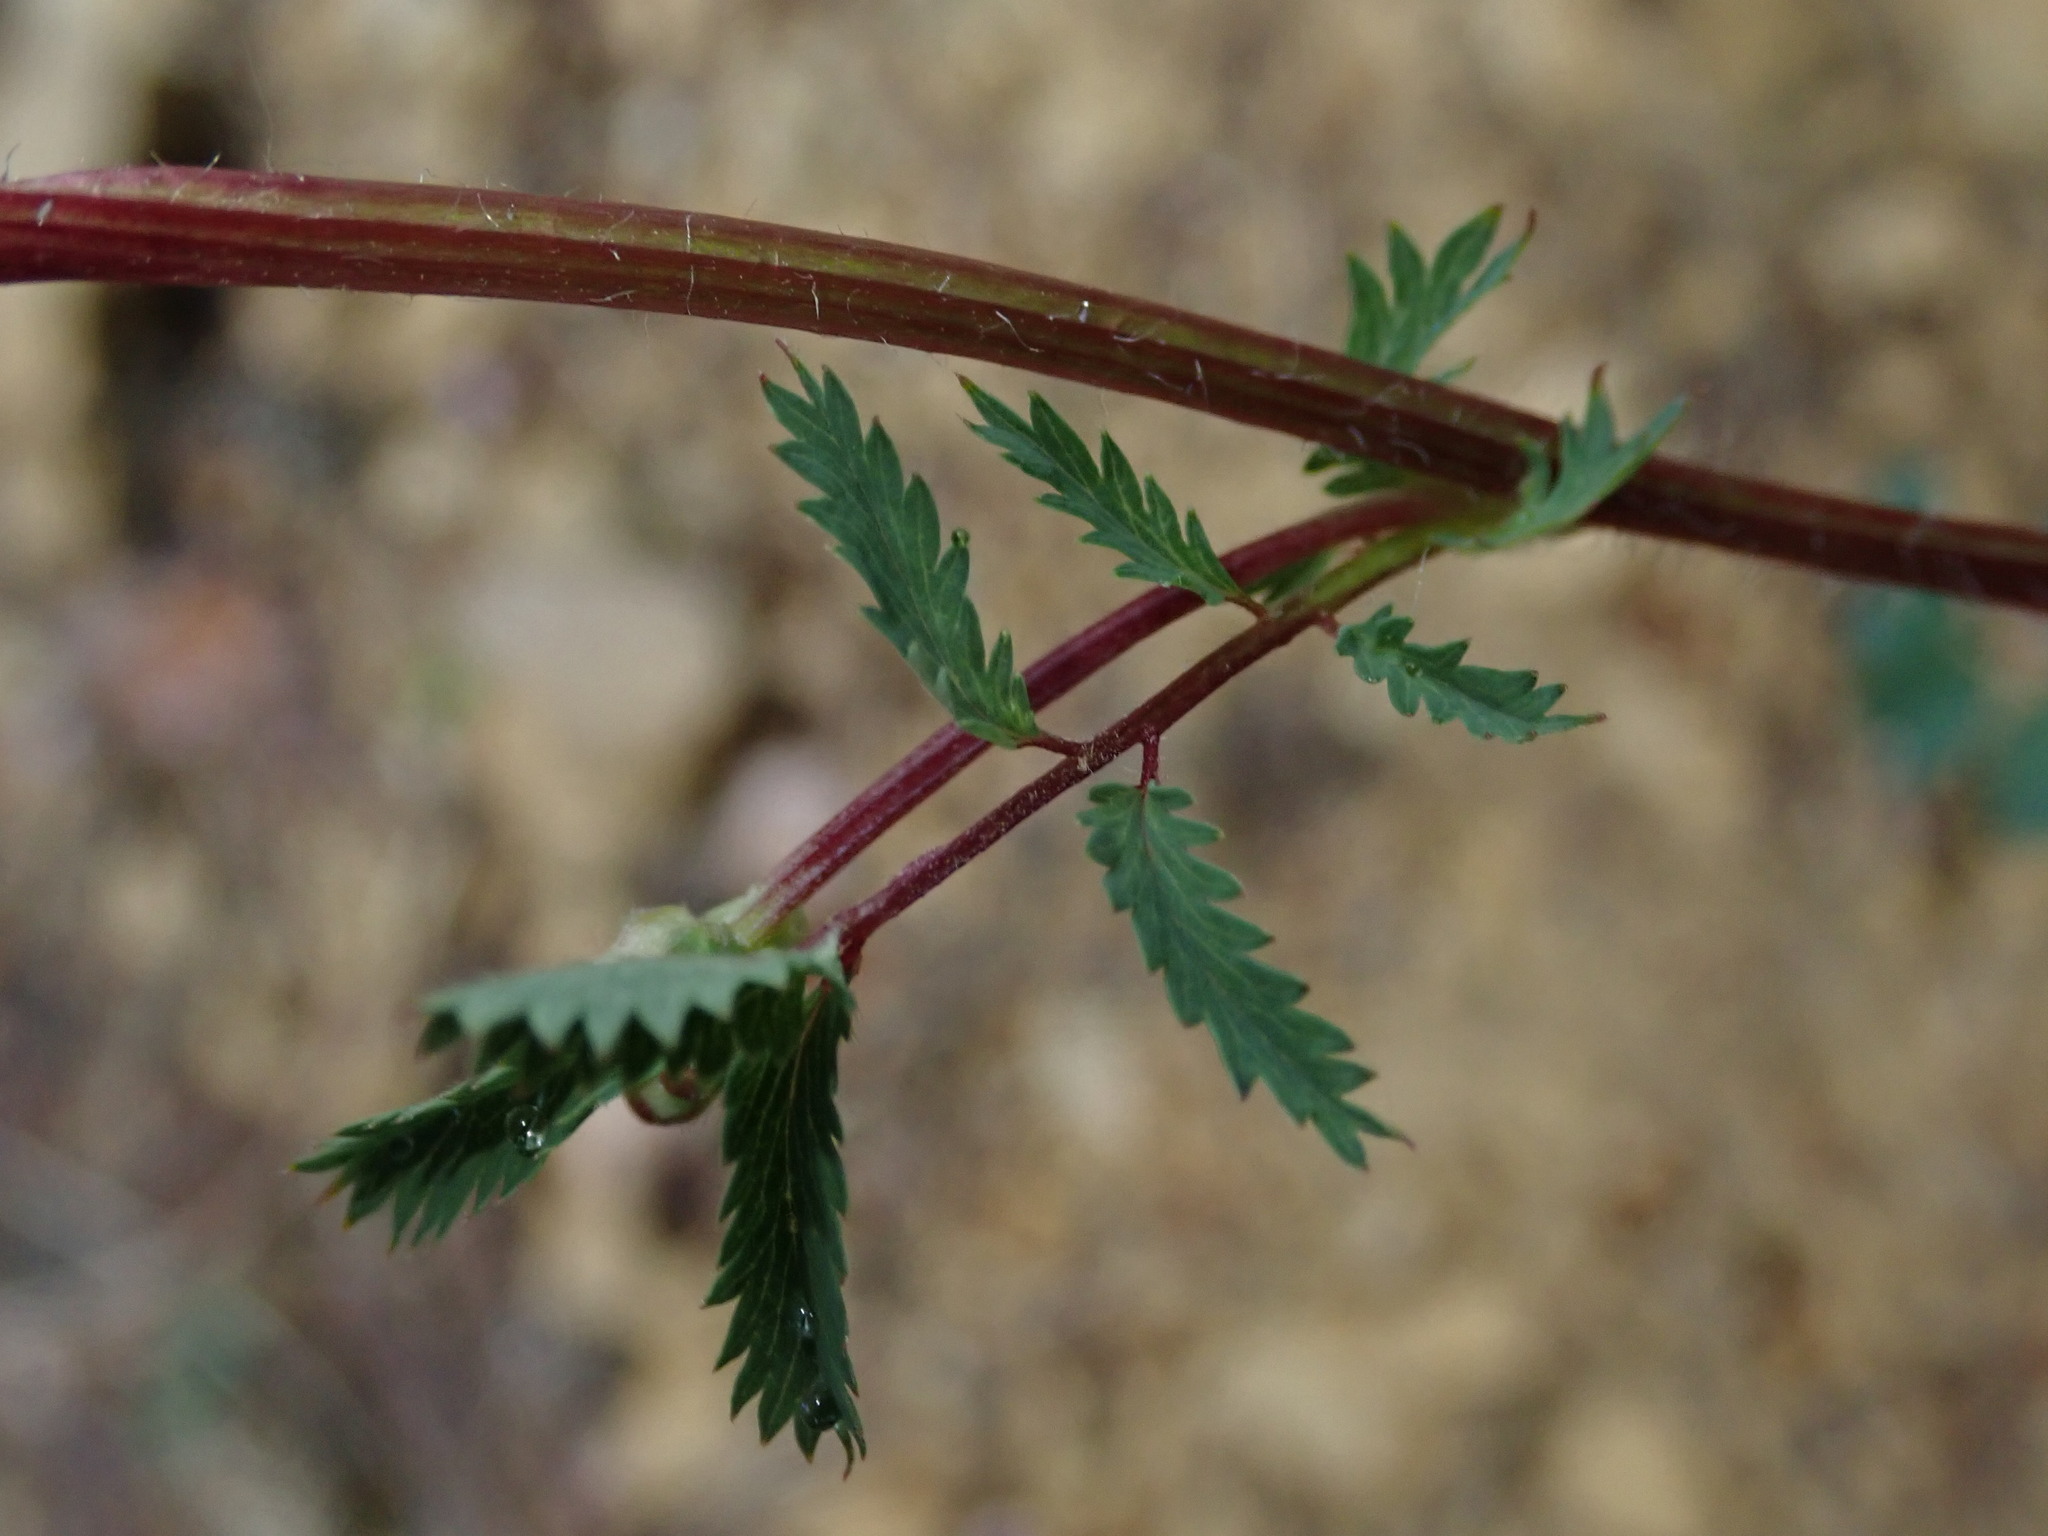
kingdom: Plantae
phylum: Tracheophyta
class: Magnoliopsida
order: Rosales
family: Rosaceae
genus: Poterium
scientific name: Poterium sanguisorba
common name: Salad burnet
